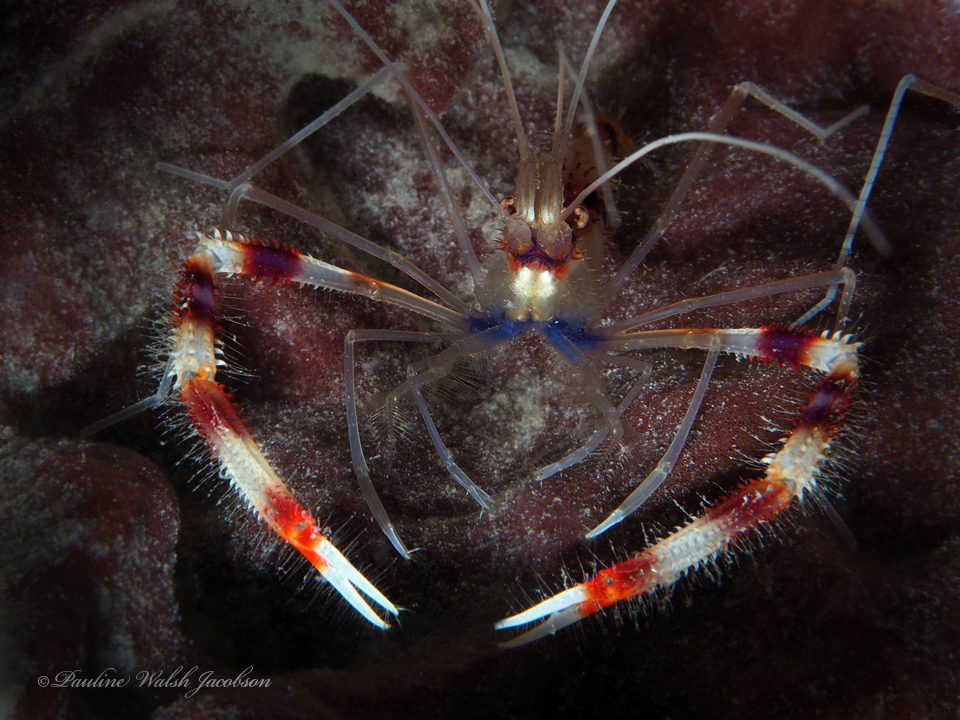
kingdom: Animalia
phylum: Arthropoda
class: Malacostraca
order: Decapoda
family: Stenopodidae
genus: Stenopus
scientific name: Stenopus hispidus
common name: Banded coral shrimp
